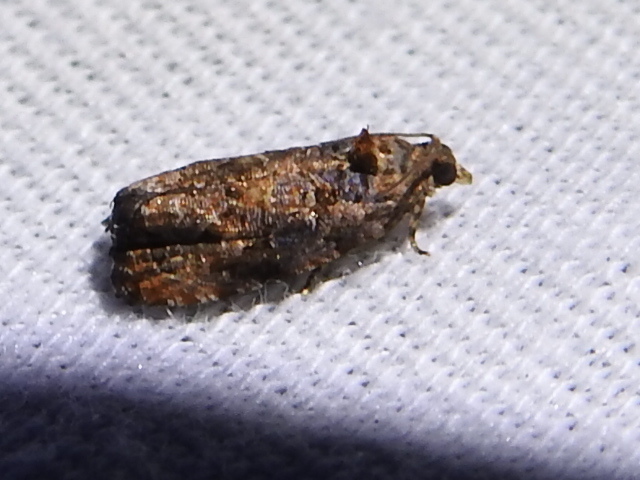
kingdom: Animalia
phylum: Arthropoda
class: Insecta
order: Lepidoptera
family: Tortricidae
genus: Endothenia
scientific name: Endothenia hebesana
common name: Verbena bud moth
